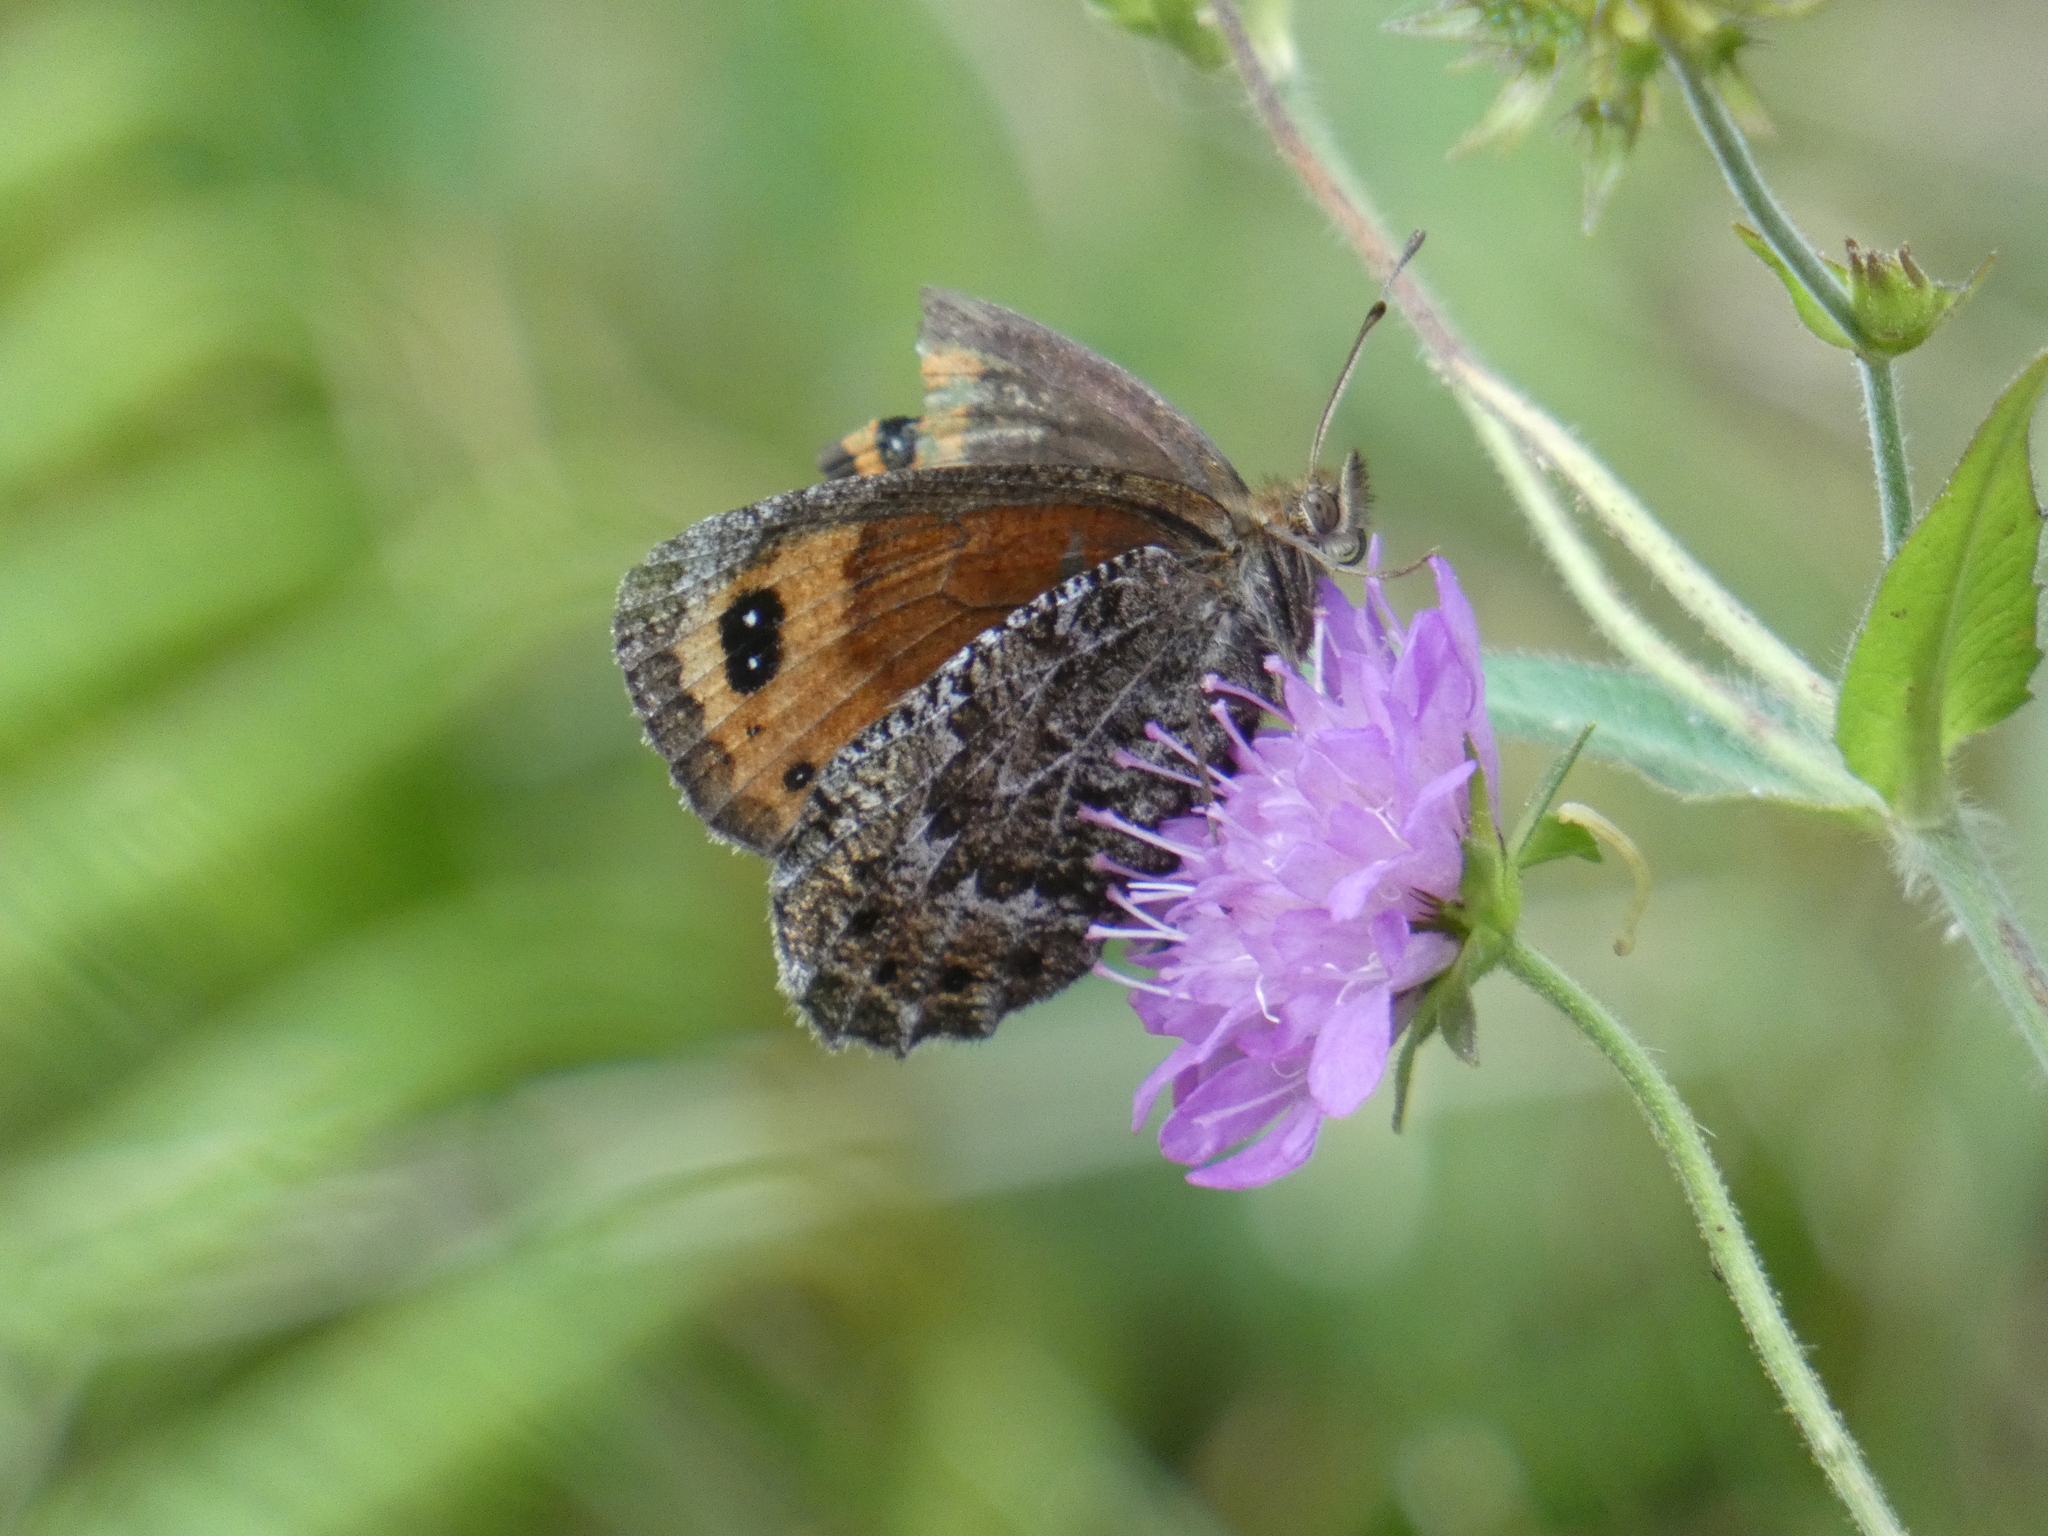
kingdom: Animalia
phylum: Arthropoda
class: Insecta
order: Lepidoptera
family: Nymphalidae
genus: Erebia
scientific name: Erebia montanus
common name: Marbled ringlet
